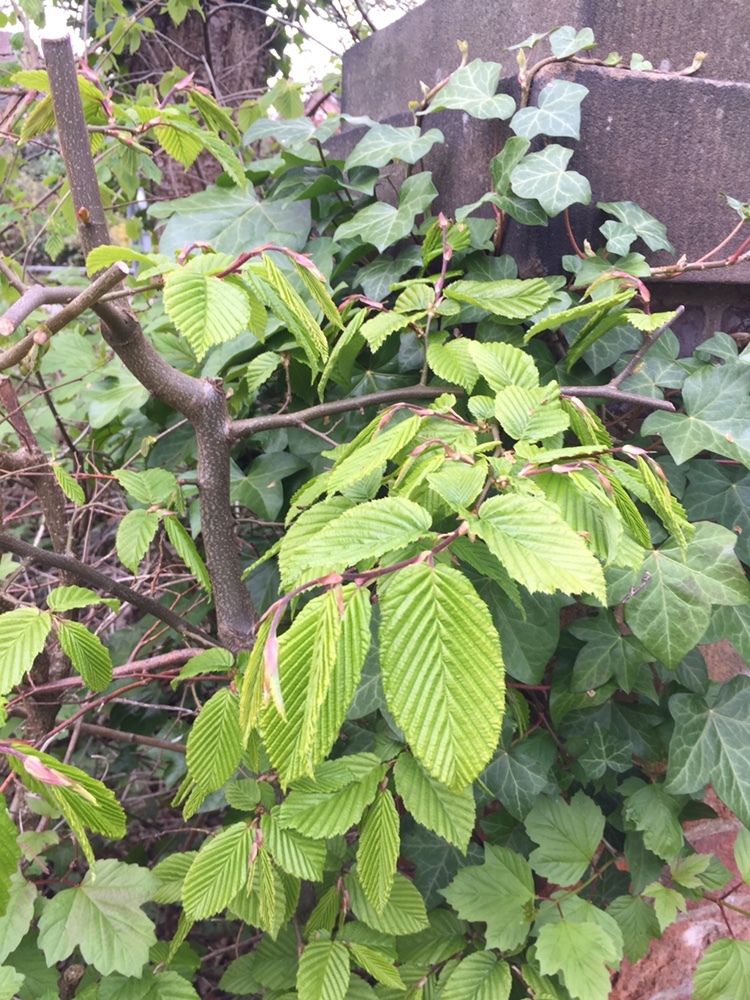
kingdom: Plantae
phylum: Tracheophyta
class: Magnoliopsida
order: Fagales
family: Betulaceae
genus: Carpinus
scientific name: Carpinus betulus
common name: Hornbeam
